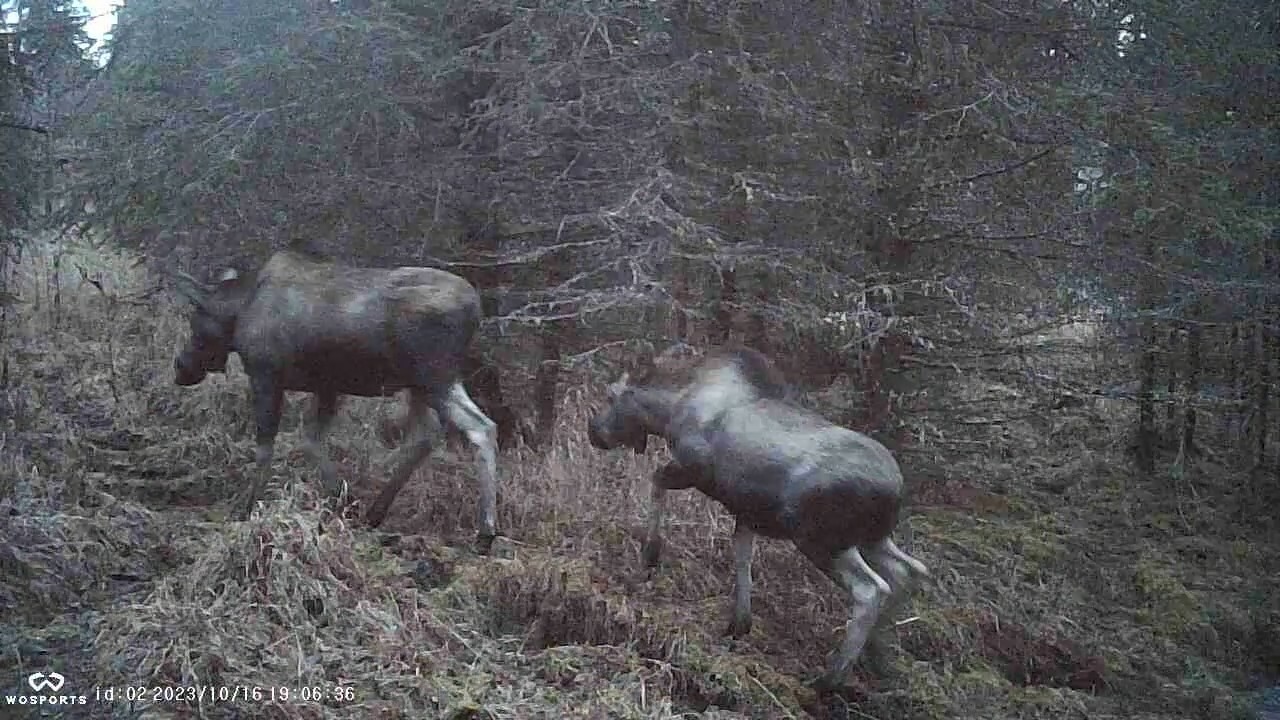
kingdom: Animalia
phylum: Chordata
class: Mammalia
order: Artiodactyla
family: Cervidae
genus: Alces
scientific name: Alces alces
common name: Moose
